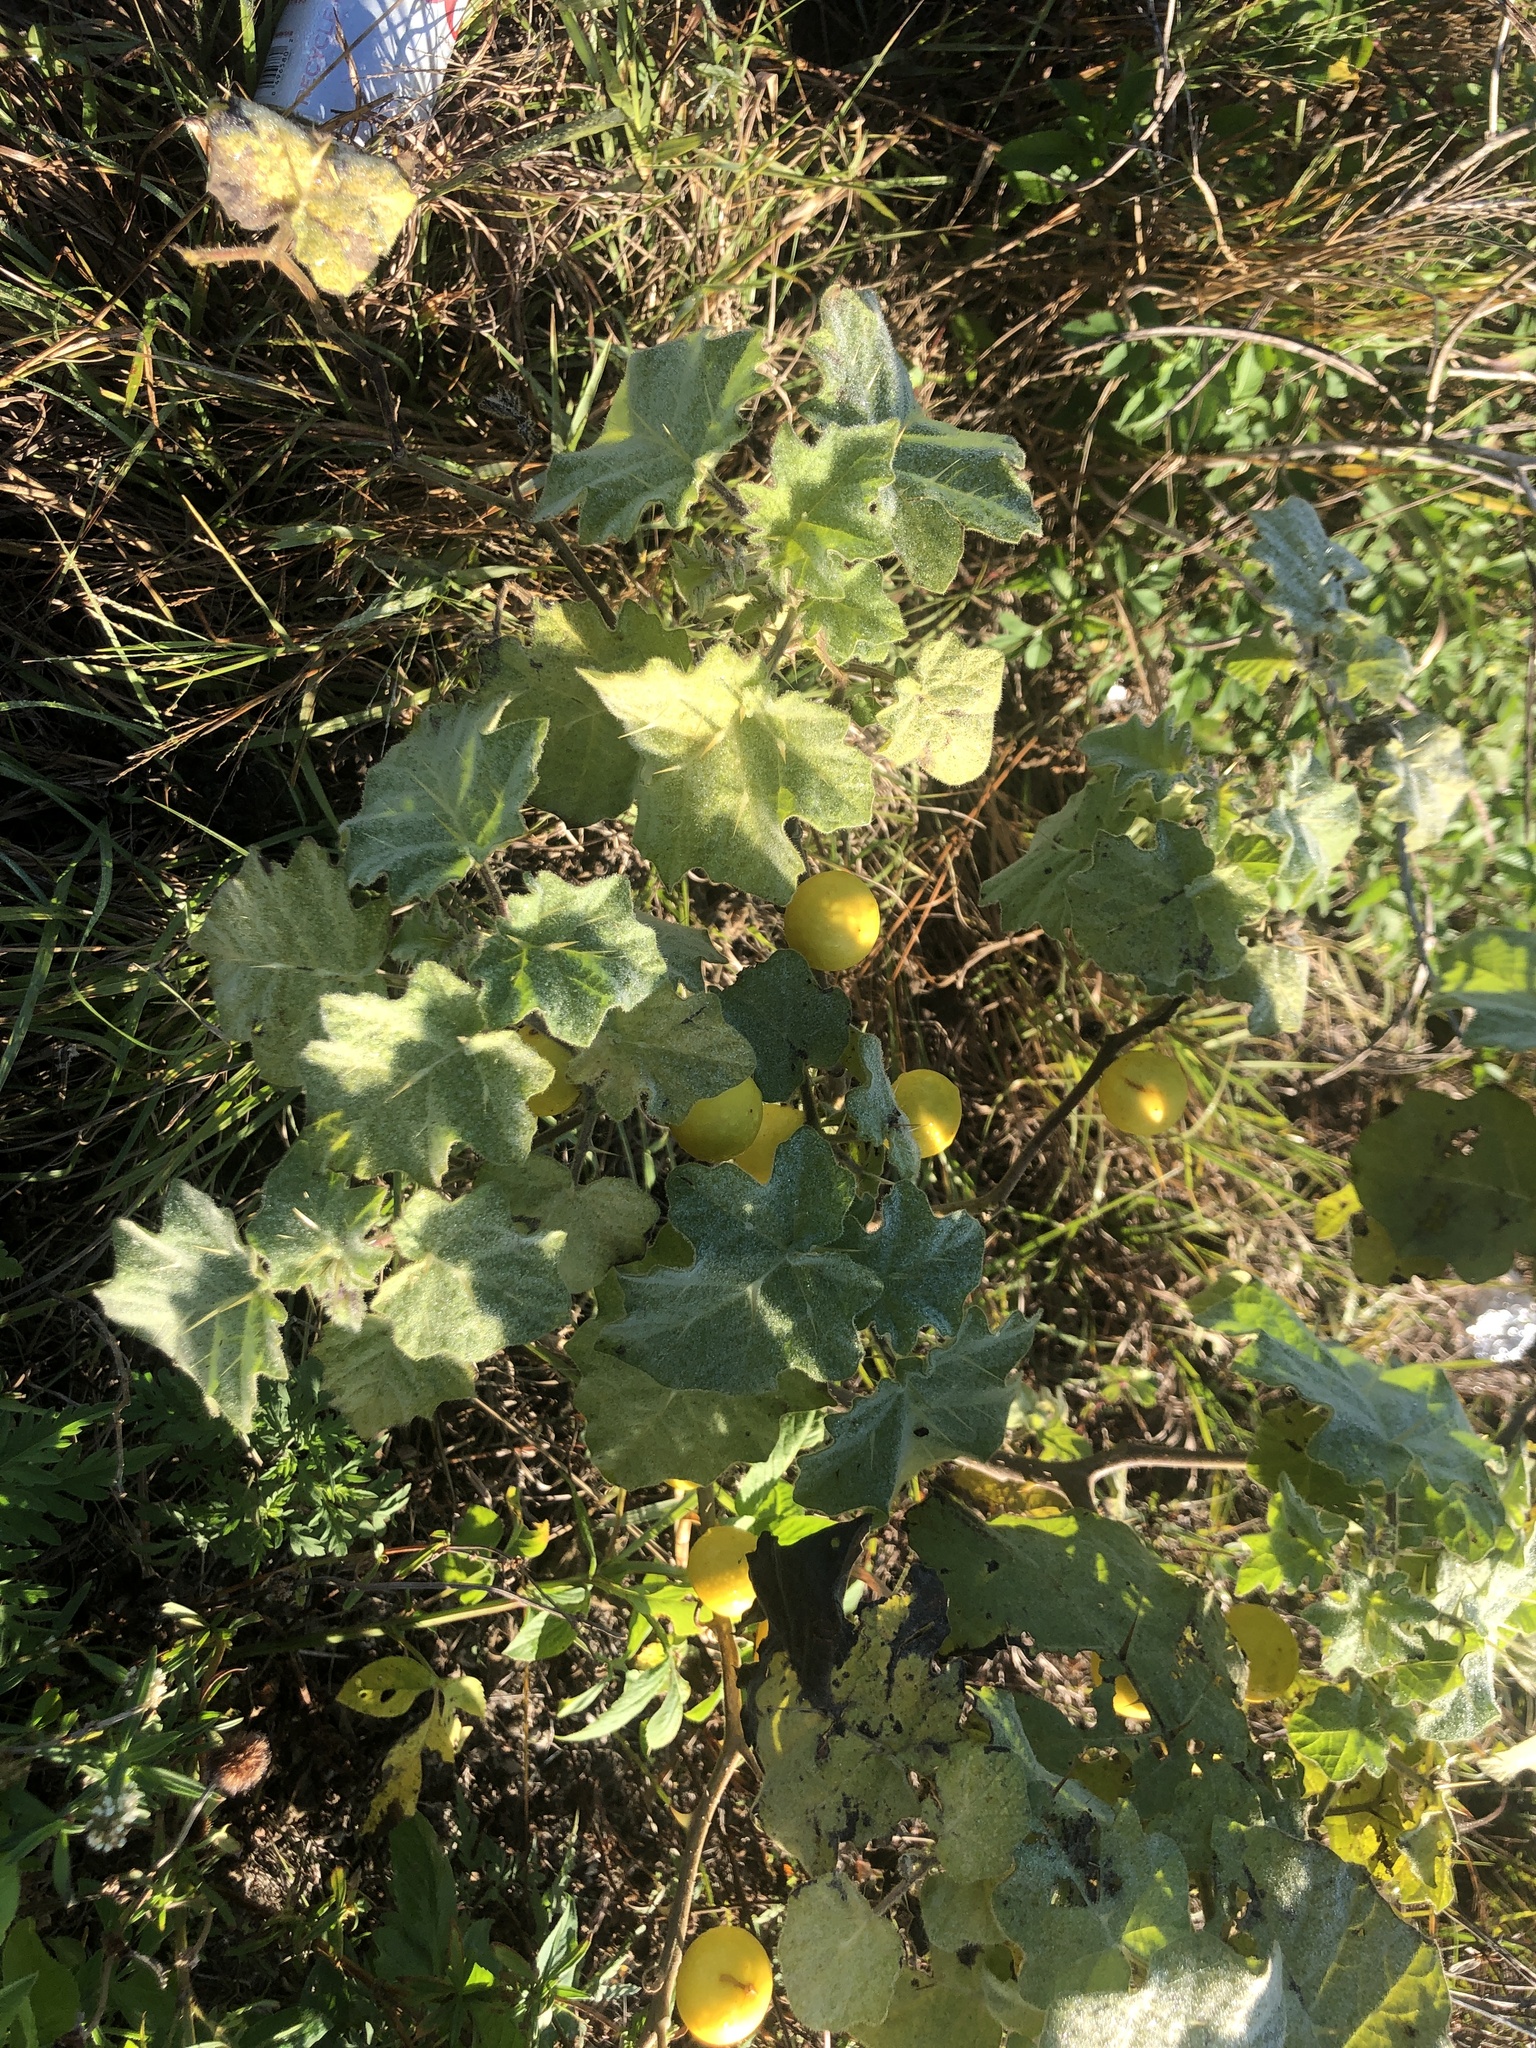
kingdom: Plantae
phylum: Tracheophyta
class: Magnoliopsida
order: Solanales
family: Solanaceae
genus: Solanum
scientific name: Solanum viarum
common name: Tropical soda apple
